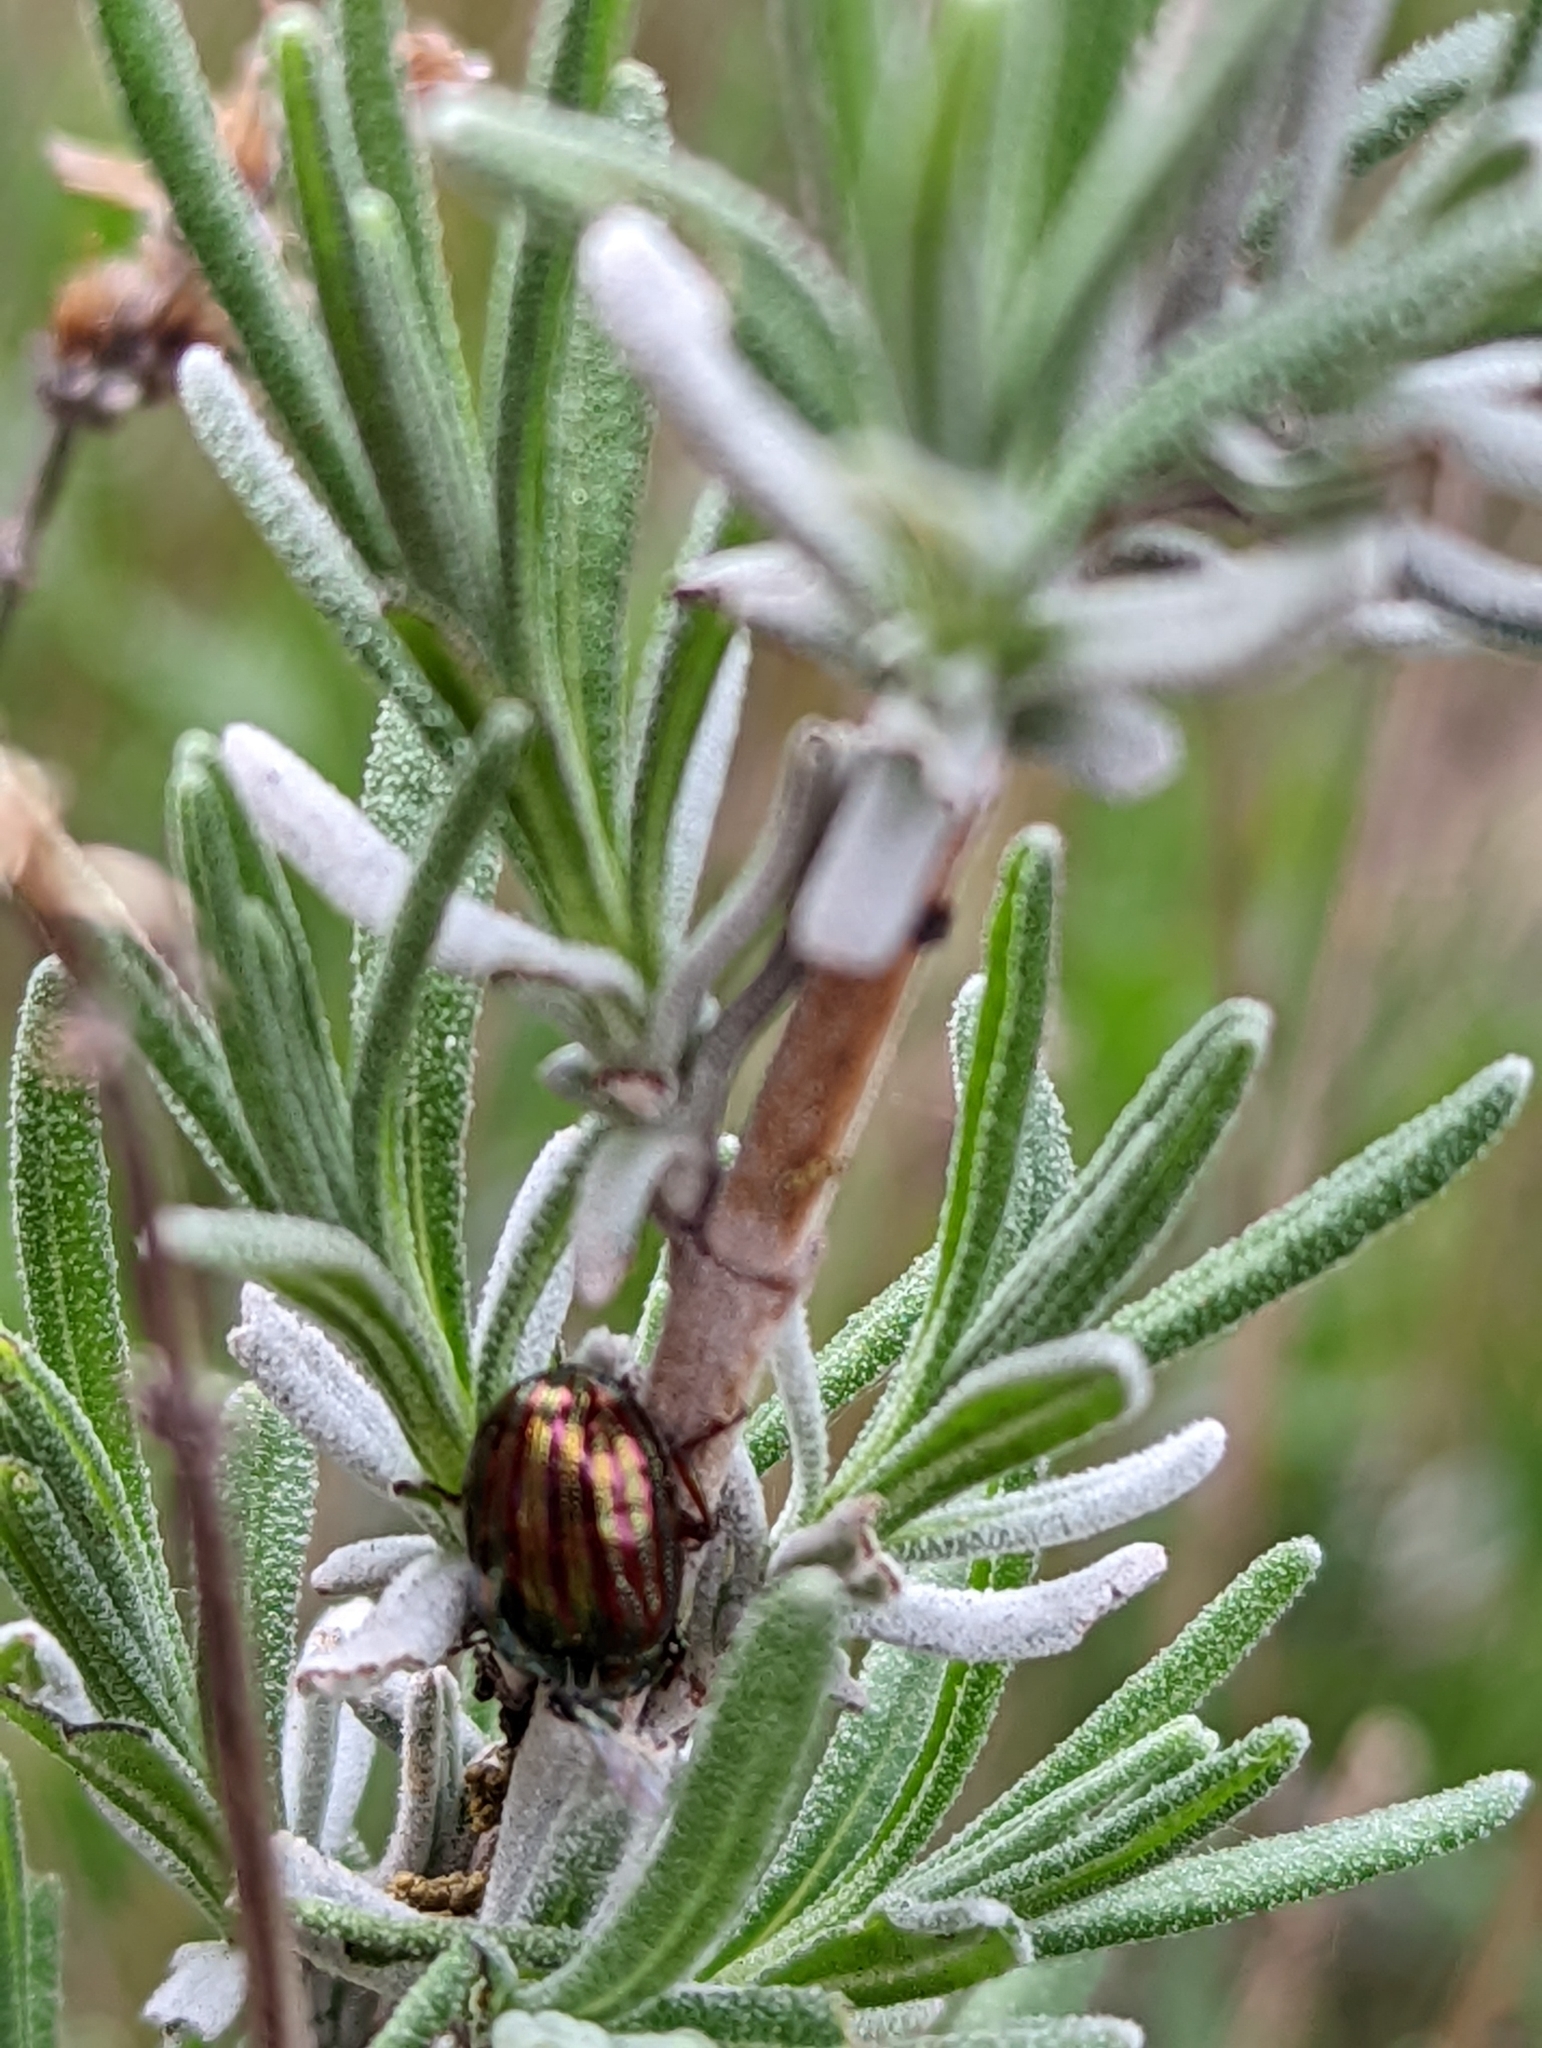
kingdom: Animalia
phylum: Arthropoda
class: Insecta
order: Coleoptera
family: Chrysomelidae
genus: Chrysolina
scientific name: Chrysolina americana
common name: Rosemary beetle
